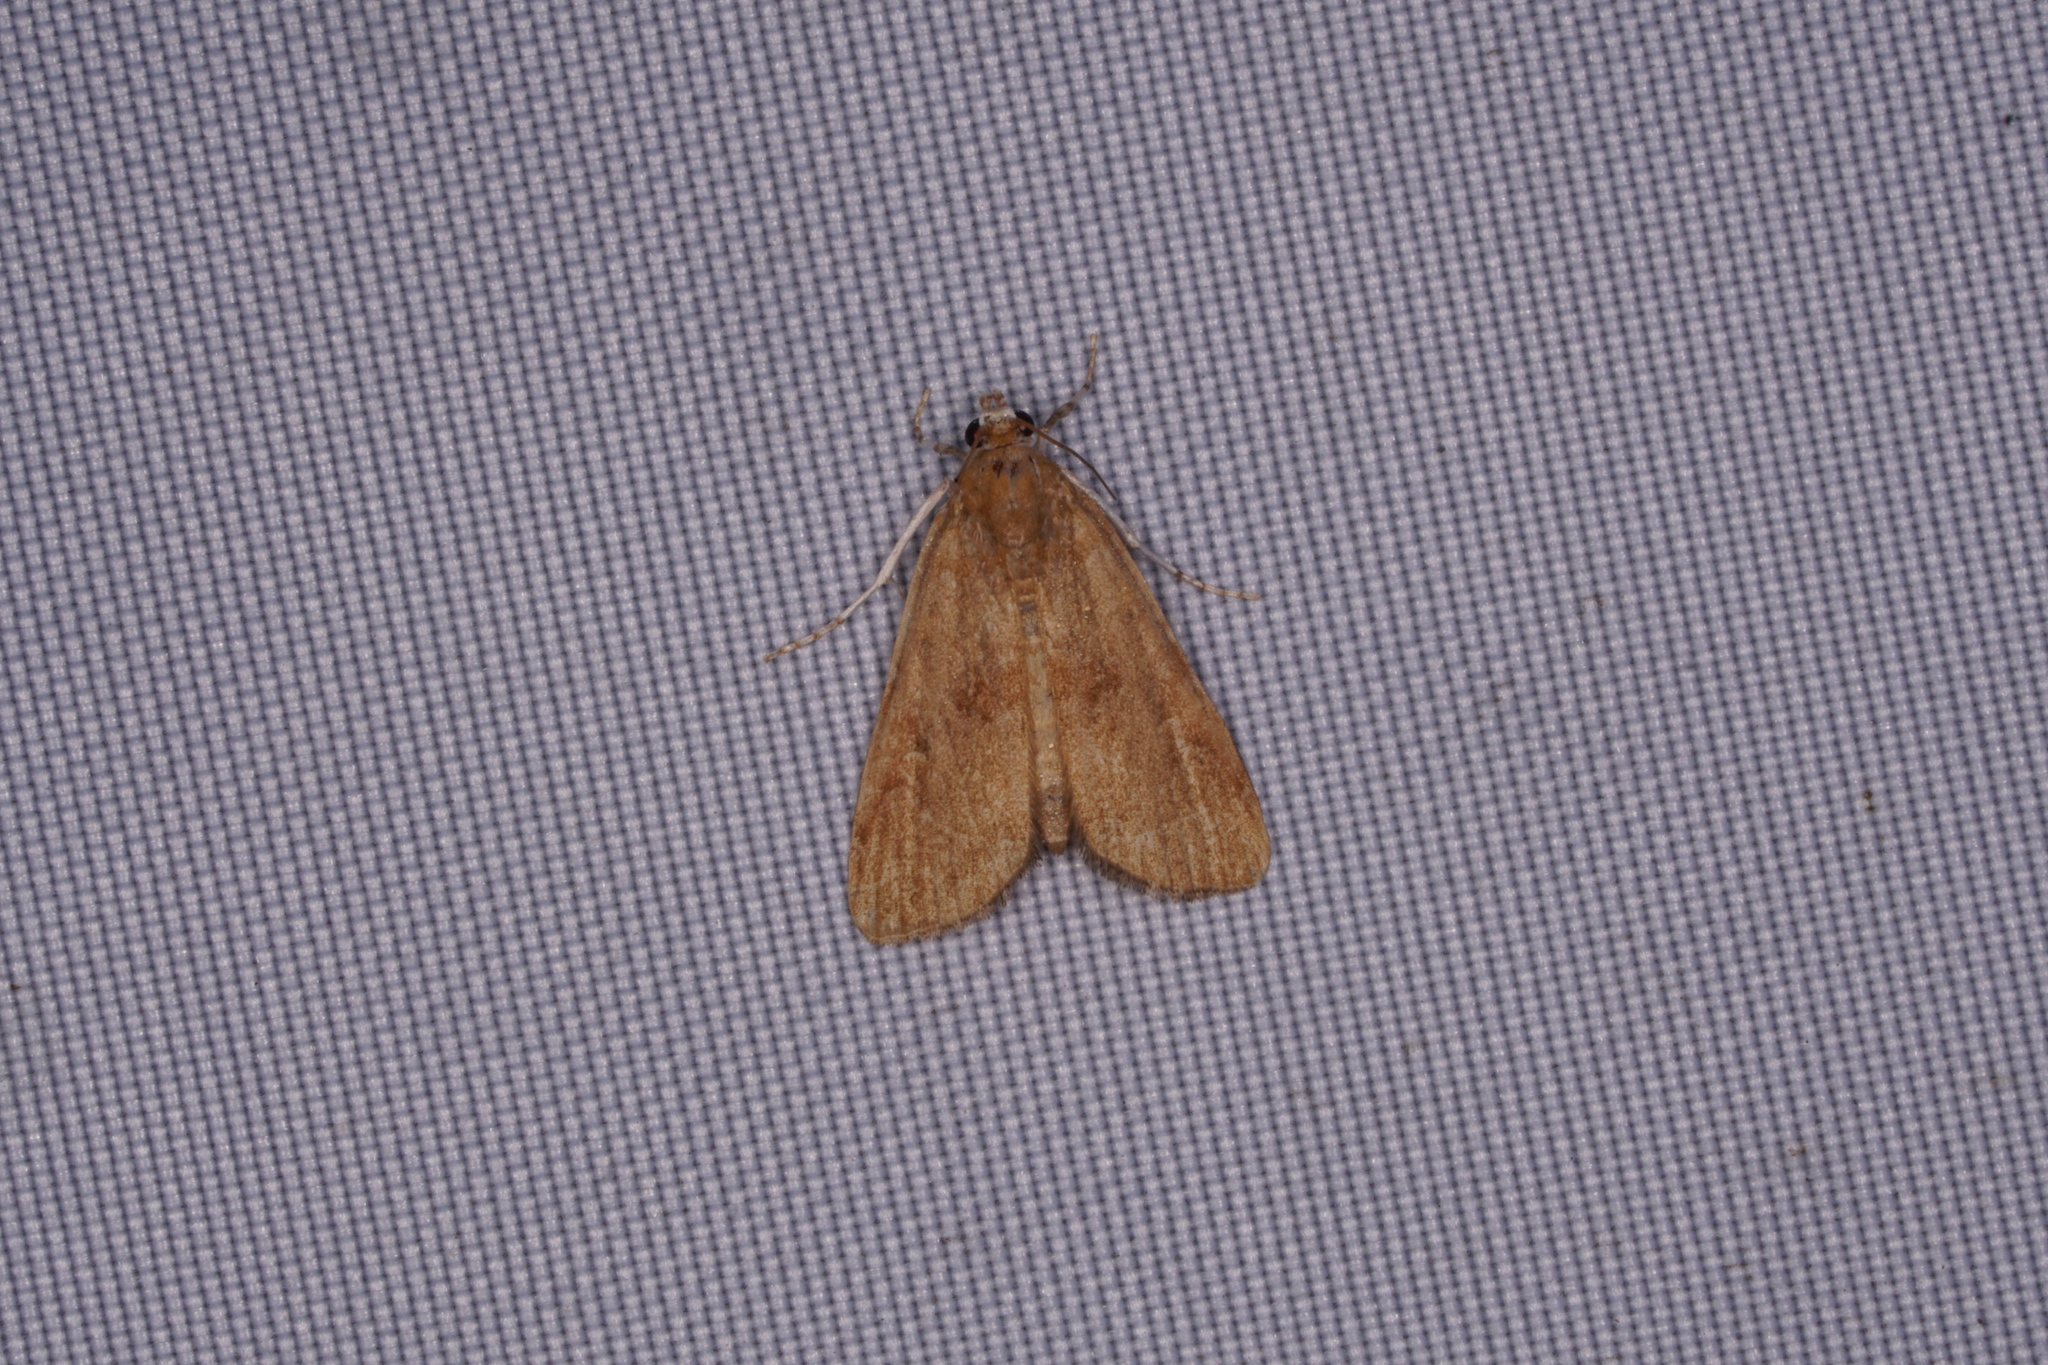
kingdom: Animalia
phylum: Arthropoda
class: Insecta
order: Lepidoptera
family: Crambidae
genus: Elophila
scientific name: Elophila gyralis
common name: Waterlily borer moth
